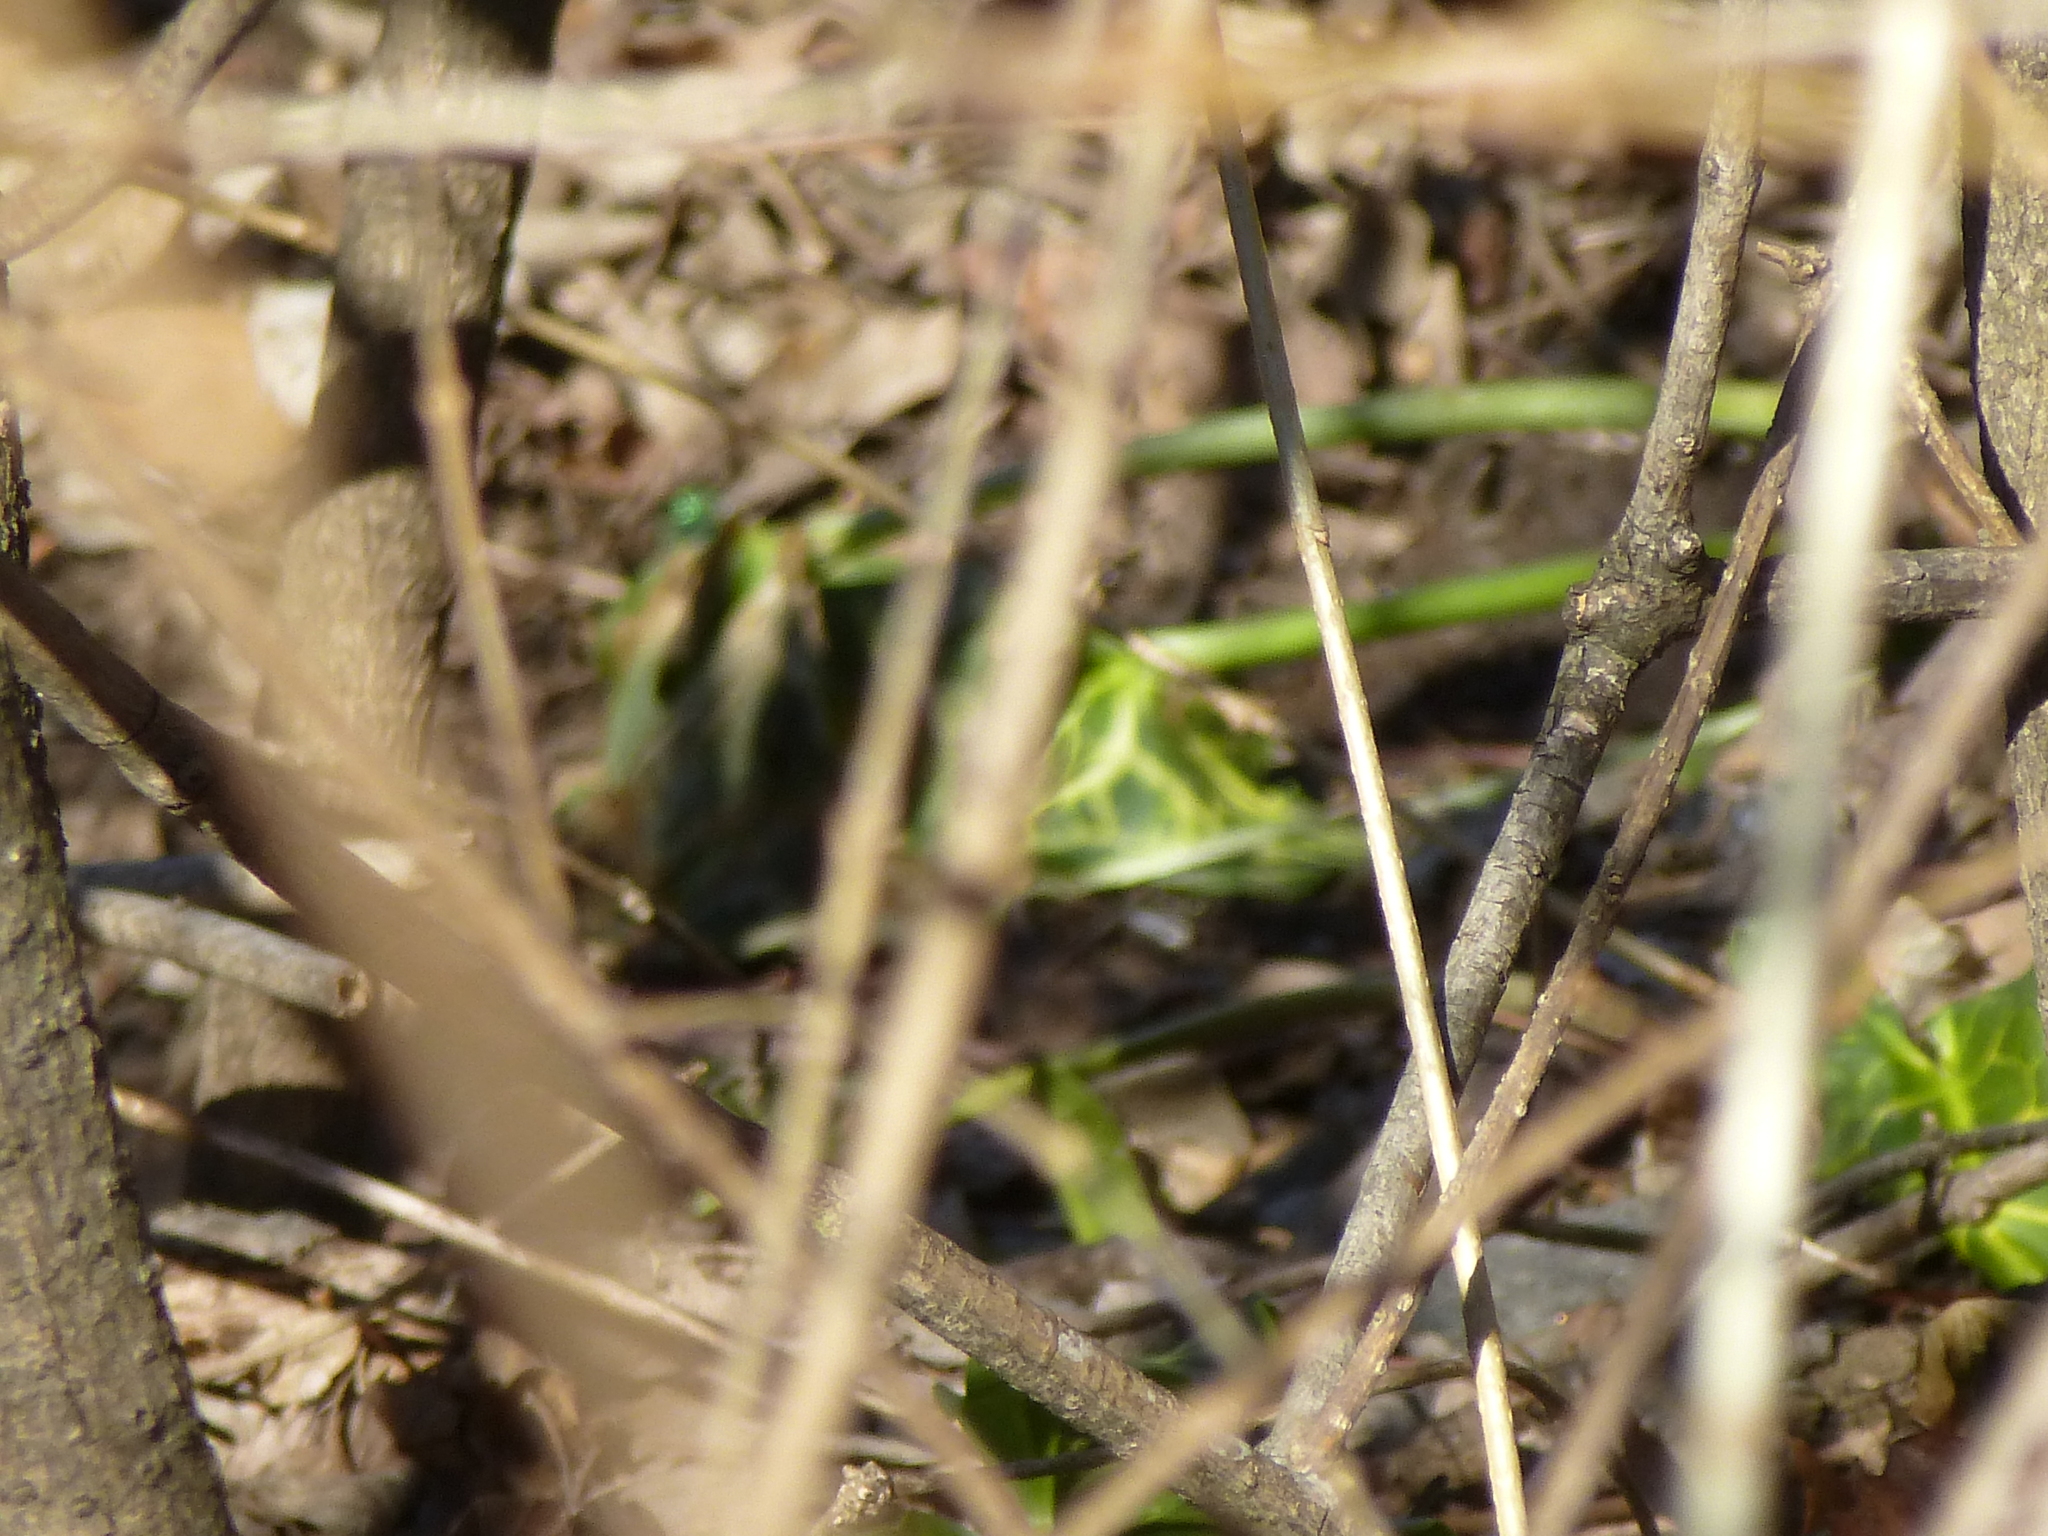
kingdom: Plantae
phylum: Tracheophyta
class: Liliopsida
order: Alismatales
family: Araceae
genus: Arum
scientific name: Arum italicum
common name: Italian lords-and-ladies
